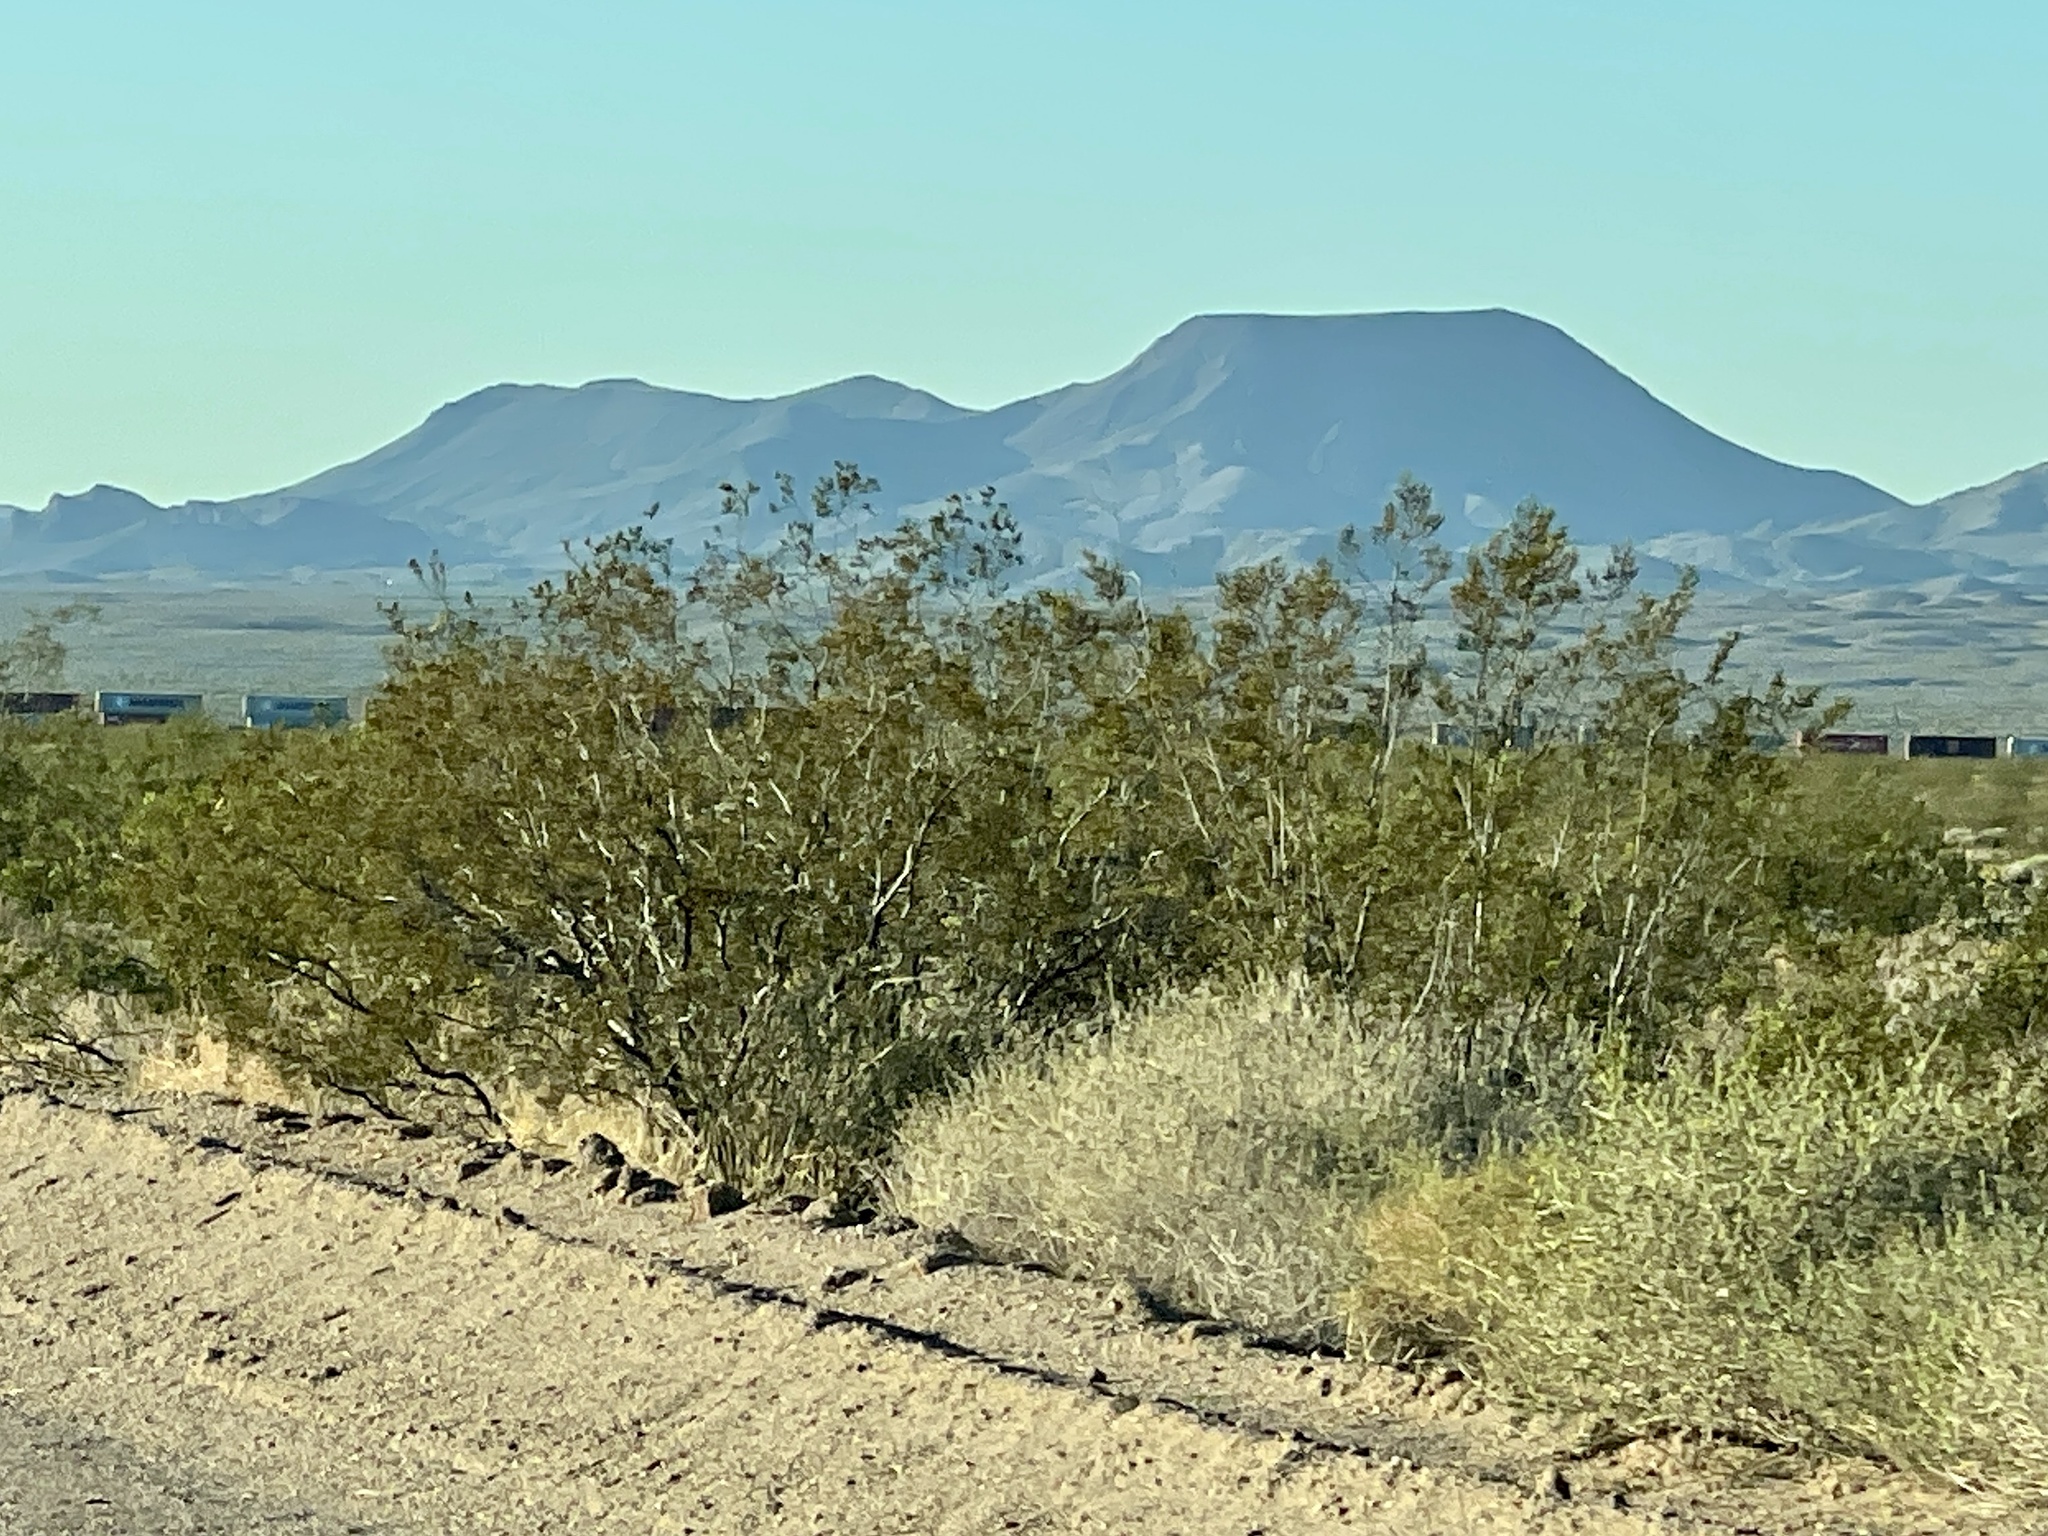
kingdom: Plantae
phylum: Tracheophyta
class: Magnoliopsida
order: Zygophyllales
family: Zygophyllaceae
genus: Larrea
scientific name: Larrea tridentata
